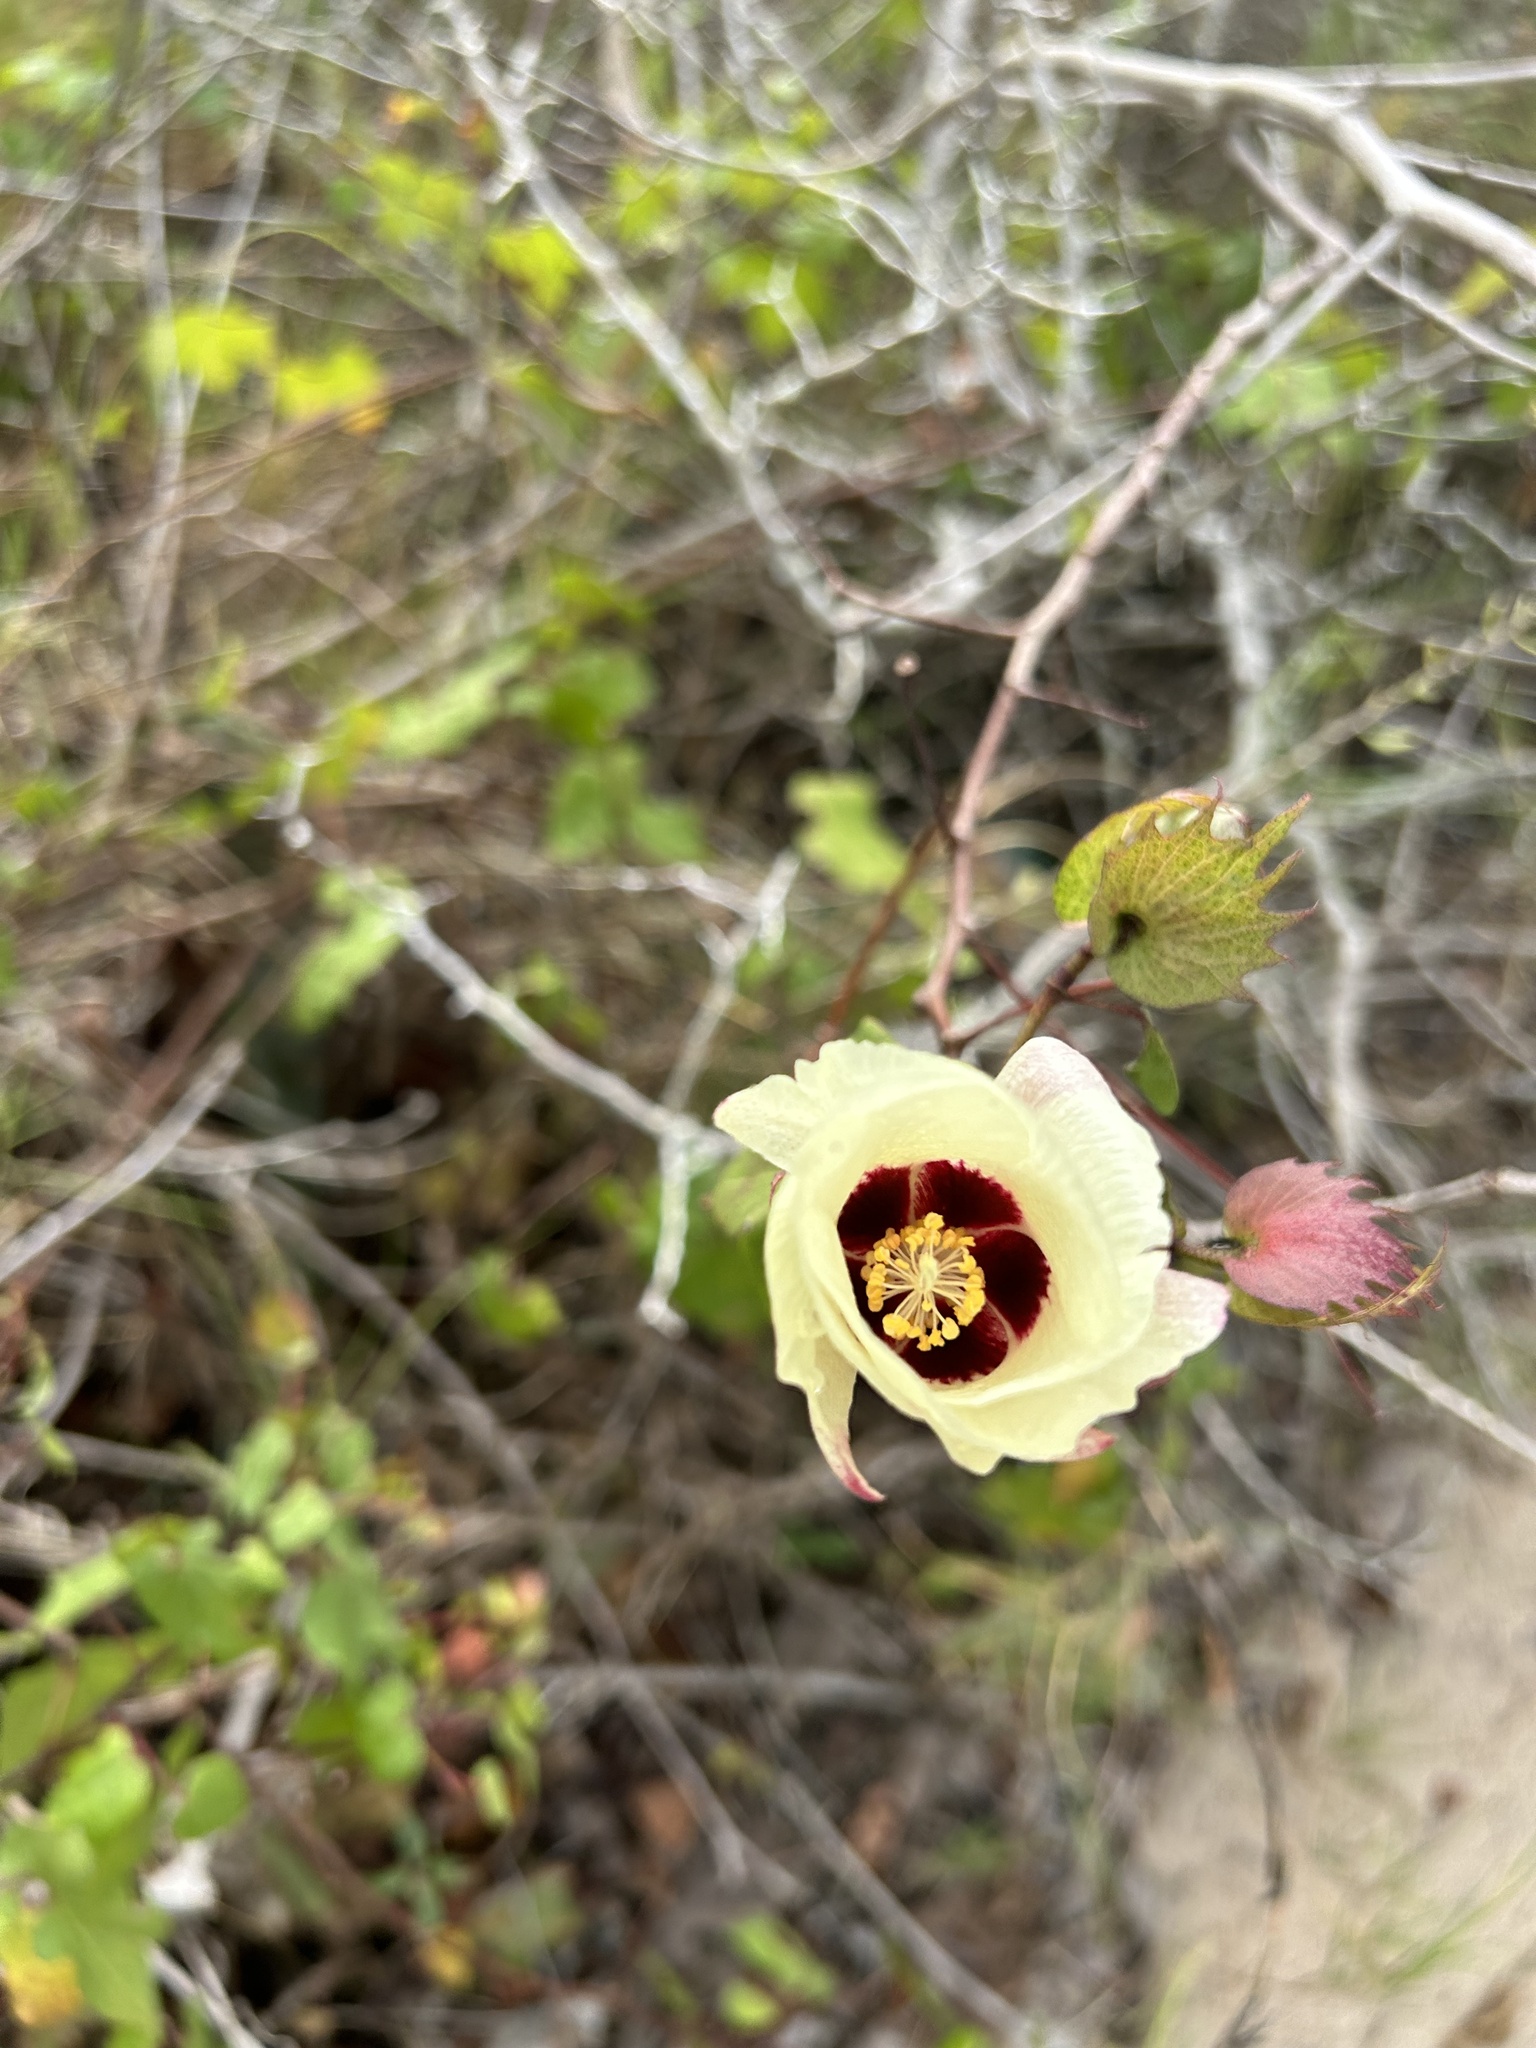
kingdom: Plantae
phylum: Tracheophyta
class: Magnoliopsida
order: Malvales
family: Malvaceae
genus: Gossypium
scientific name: Gossypium hirsutum
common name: Cotton
